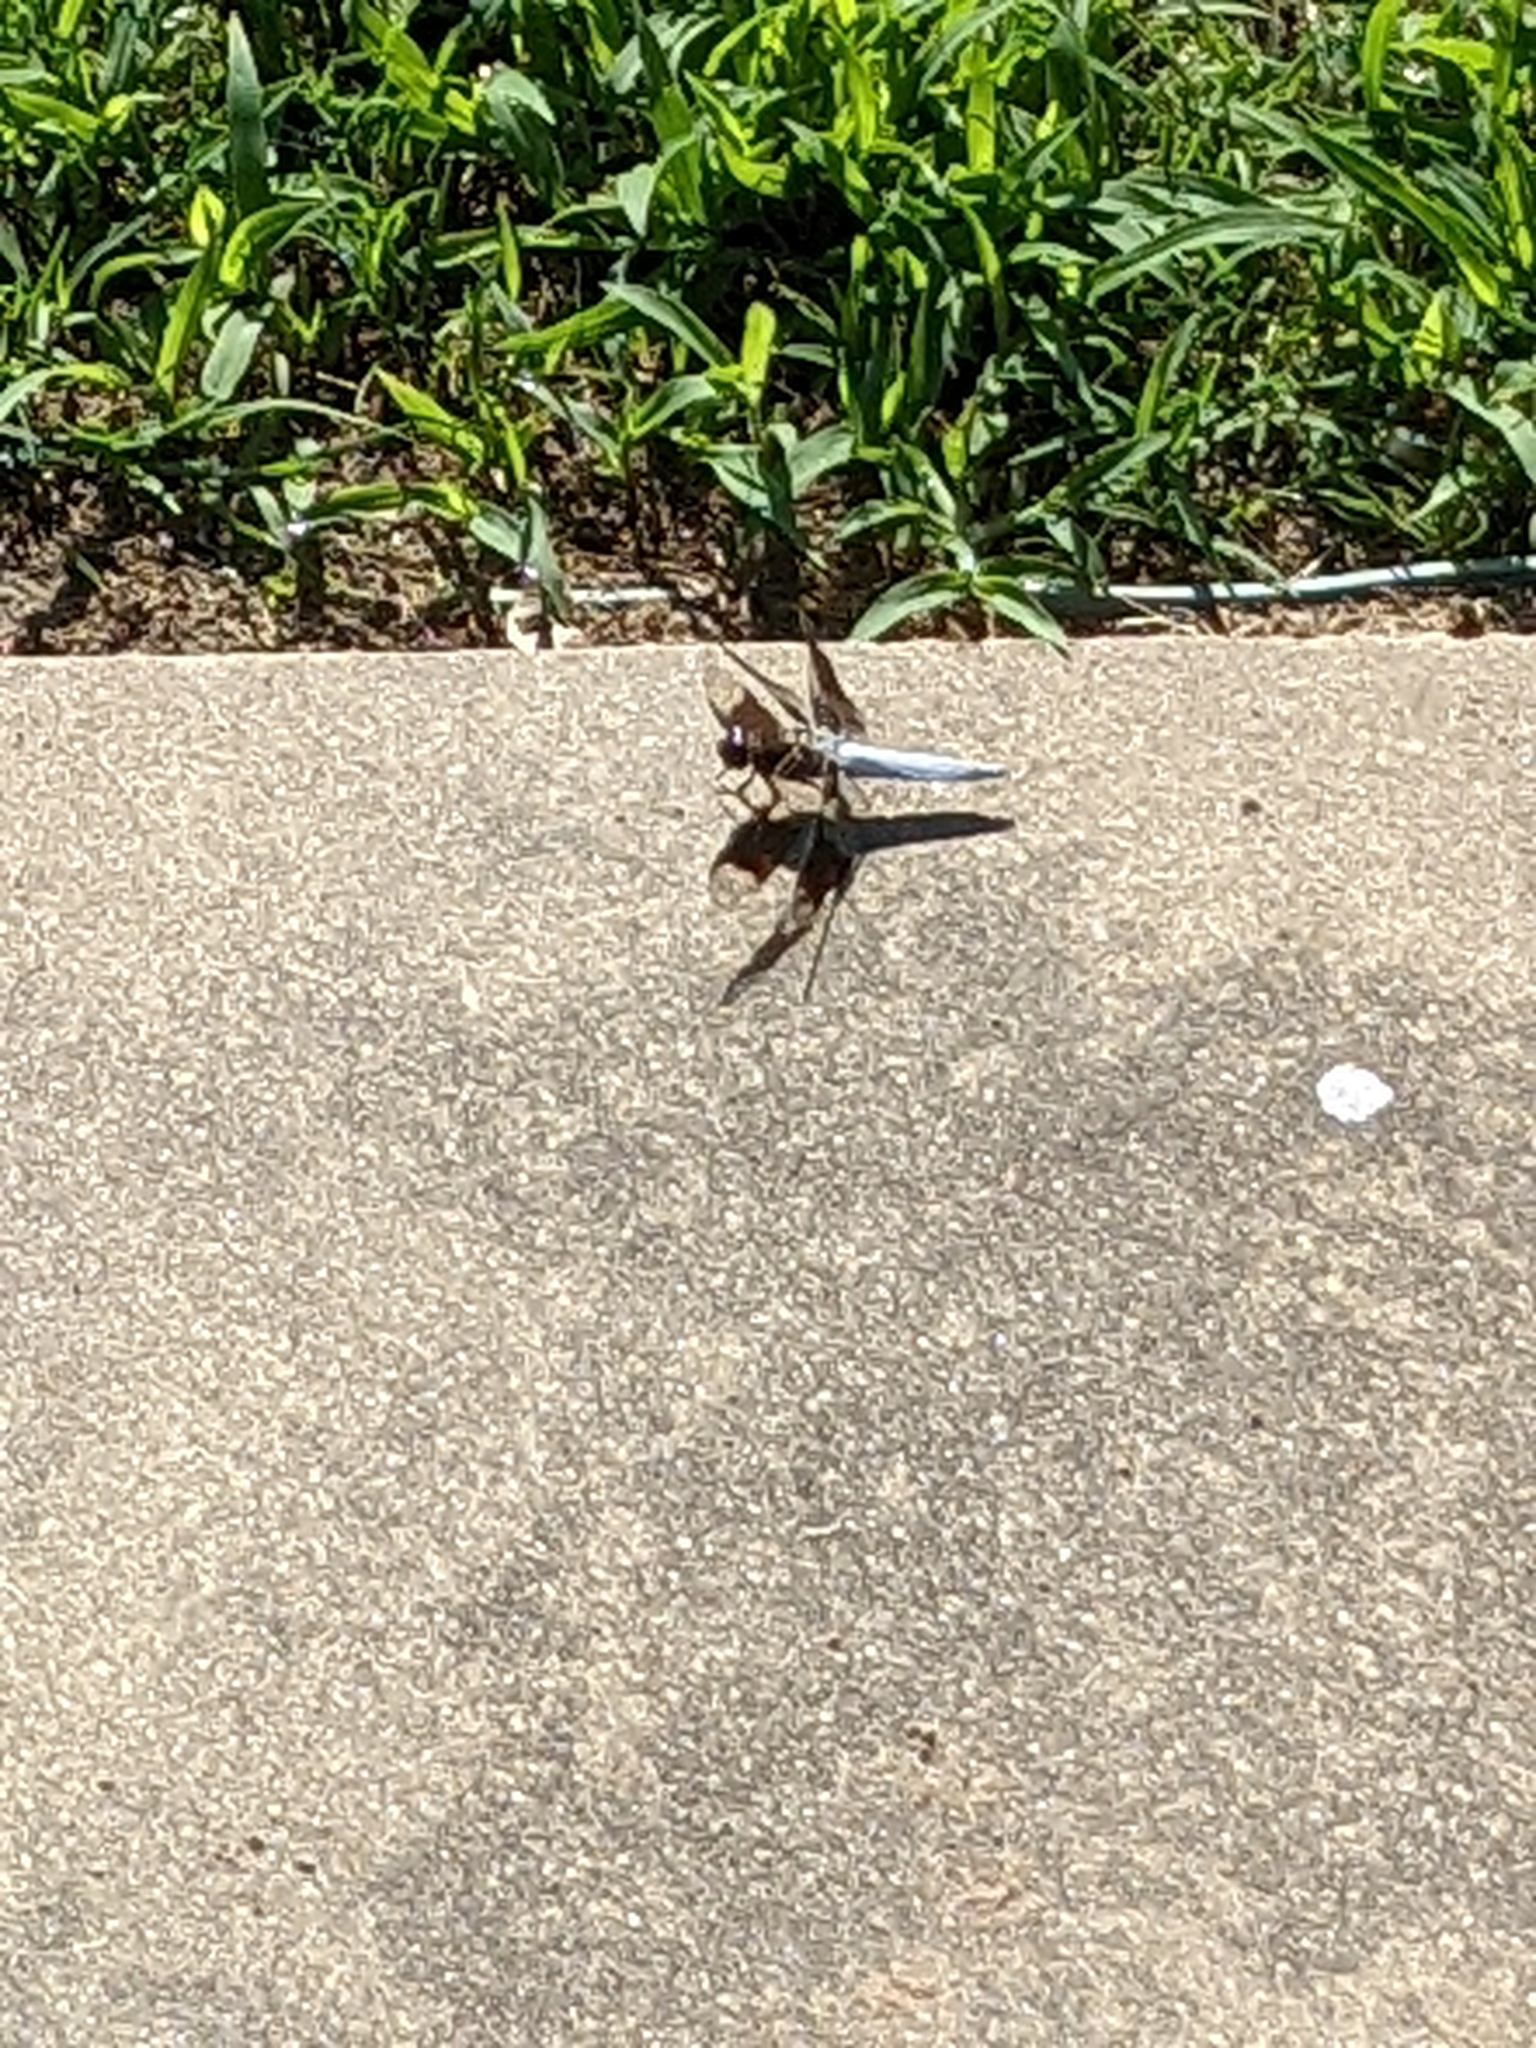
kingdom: Animalia
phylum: Arthropoda
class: Insecta
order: Odonata
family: Libellulidae
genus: Plathemis
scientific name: Plathemis lydia
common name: Common whitetail
